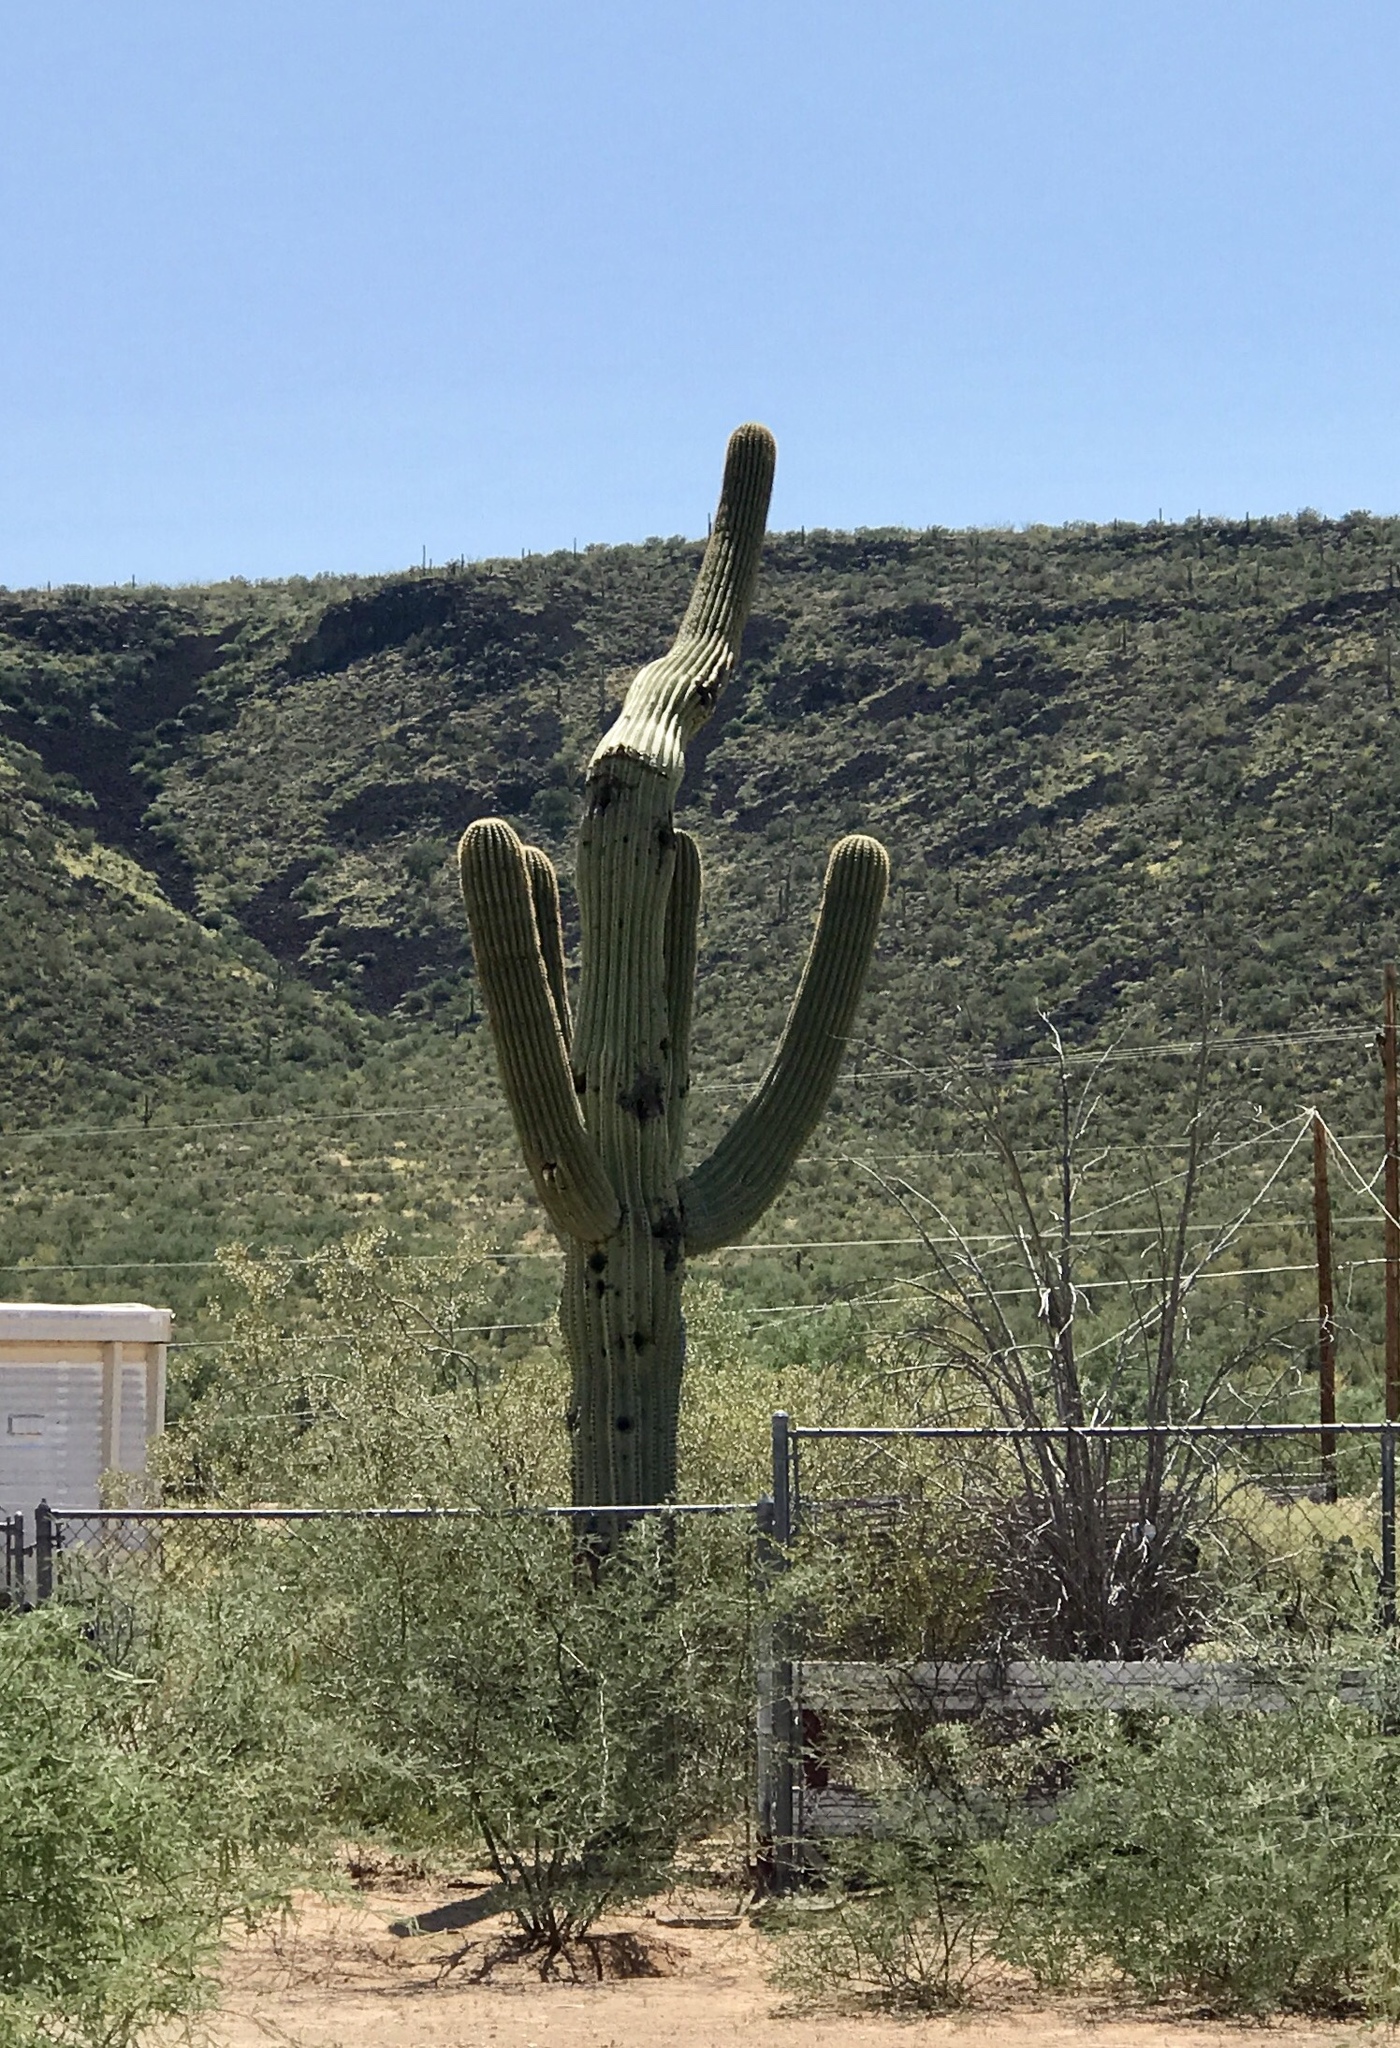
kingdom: Plantae
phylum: Tracheophyta
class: Magnoliopsida
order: Caryophyllales
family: Cactaceae
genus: Carnegiea
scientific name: Carnegiea gigantea
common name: Saguaro
